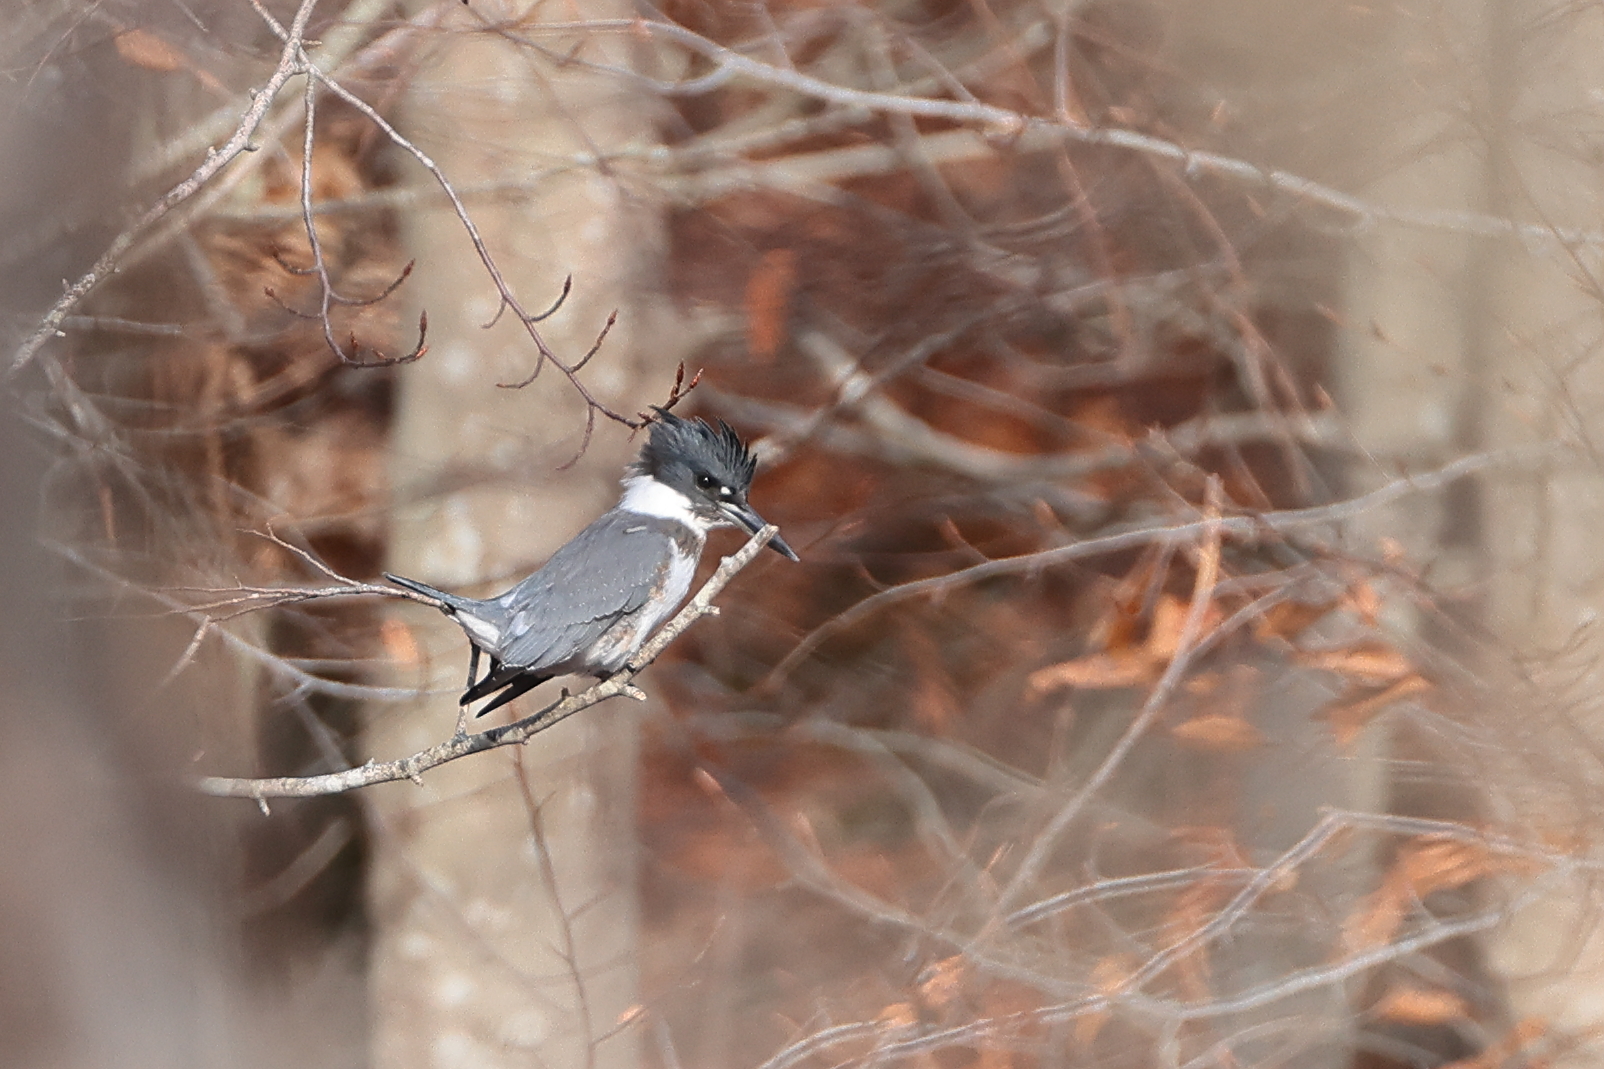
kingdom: Animalia
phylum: Chordata
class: Aves
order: Coraciiformes
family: Alcedinidae
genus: Megaceryle
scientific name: Megaceryle alcyon
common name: Belted kingfisher
